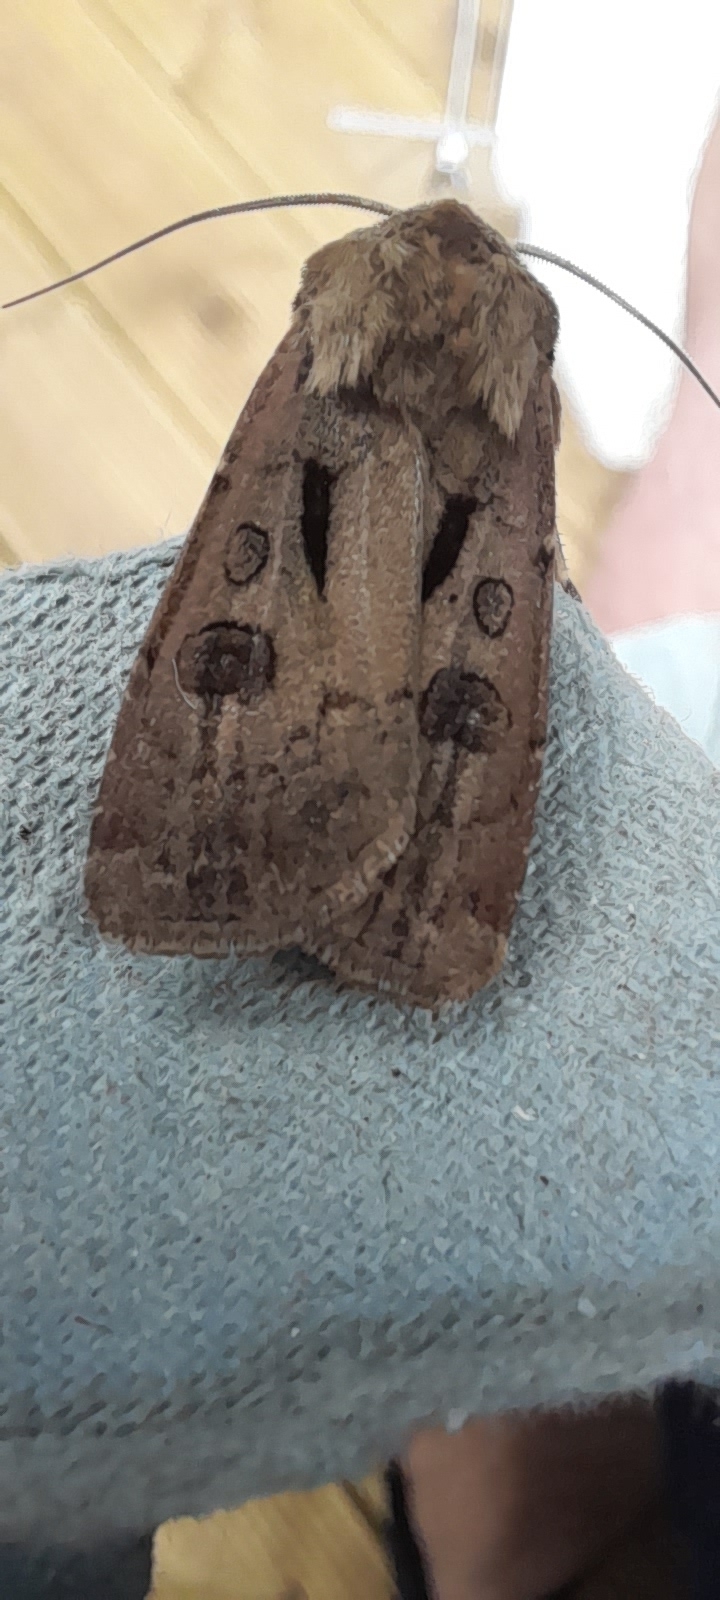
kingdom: Animalia
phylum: Arthropoda
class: Insecta
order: Lepidoptera
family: Noctuidae
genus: Agrotis
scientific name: Agrotis exclamationis
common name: Heart and dart
